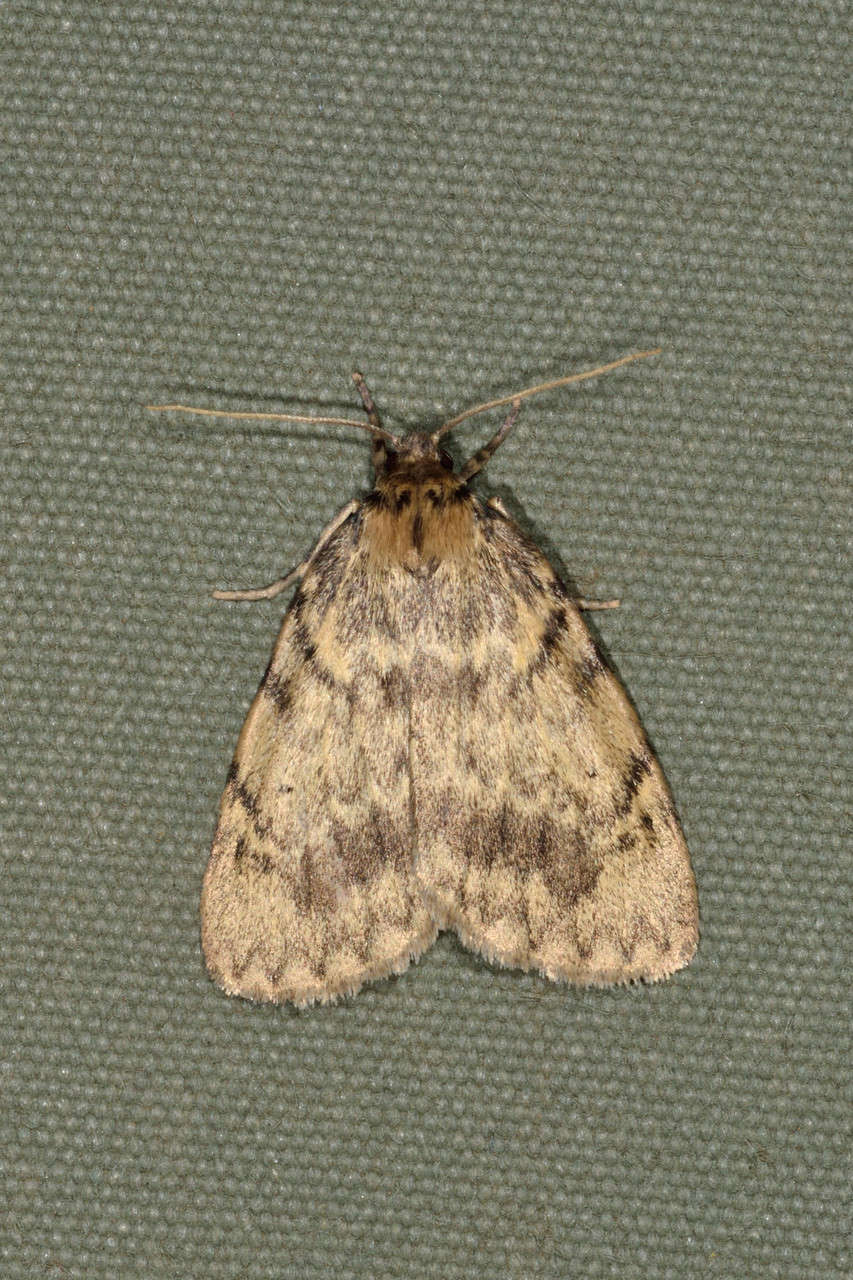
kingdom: Animalia
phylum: Arthropoda
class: Insecta
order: Lepidoptera
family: Erebidae
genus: Hectobrocha
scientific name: Hectobrocha adoxa
